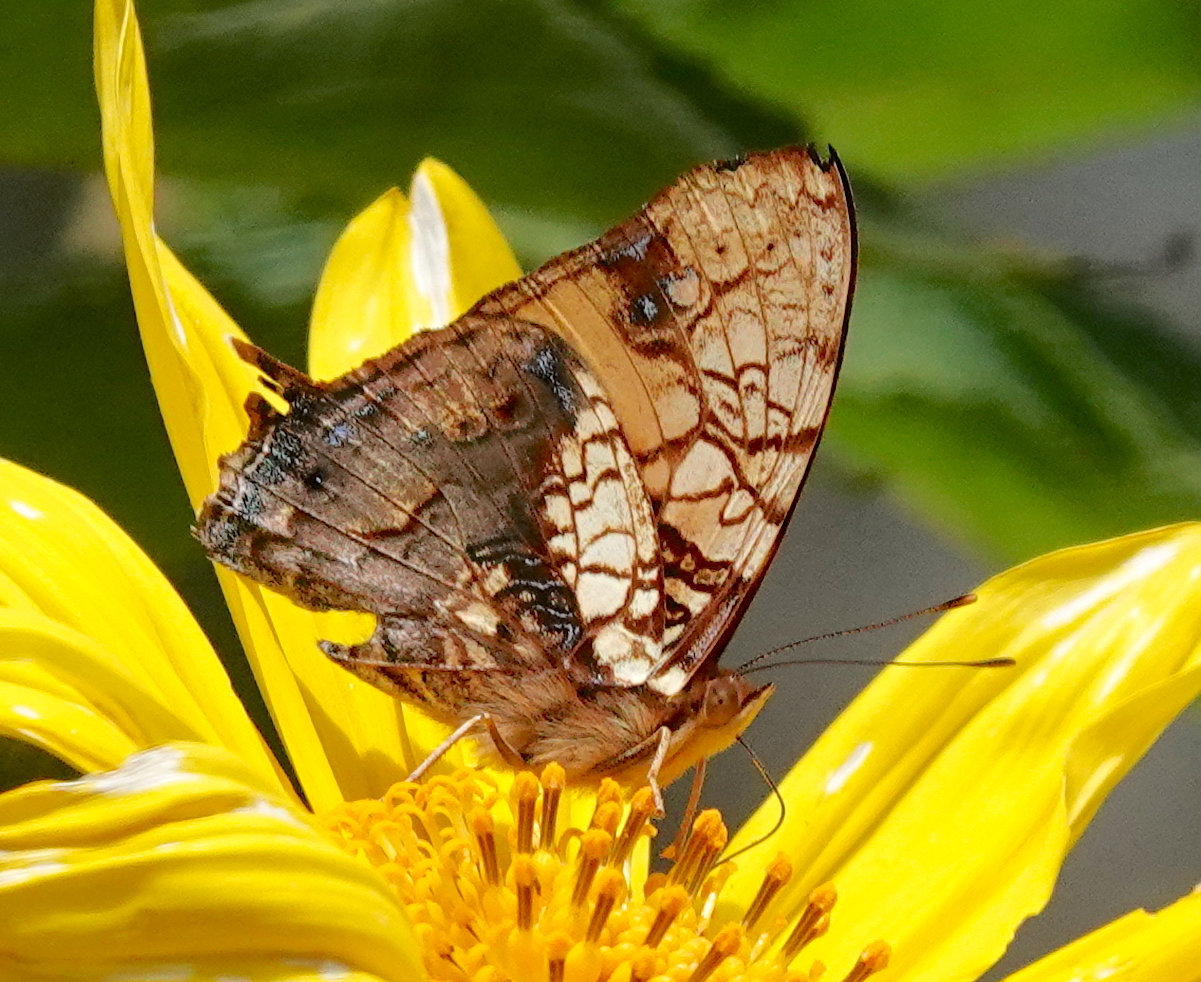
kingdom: Animalia
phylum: Arthropoda
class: Insecta
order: Lepidoptera
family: Nymphalidae
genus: Hypanartia
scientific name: Hypanartia lethe
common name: Orange mapwing
